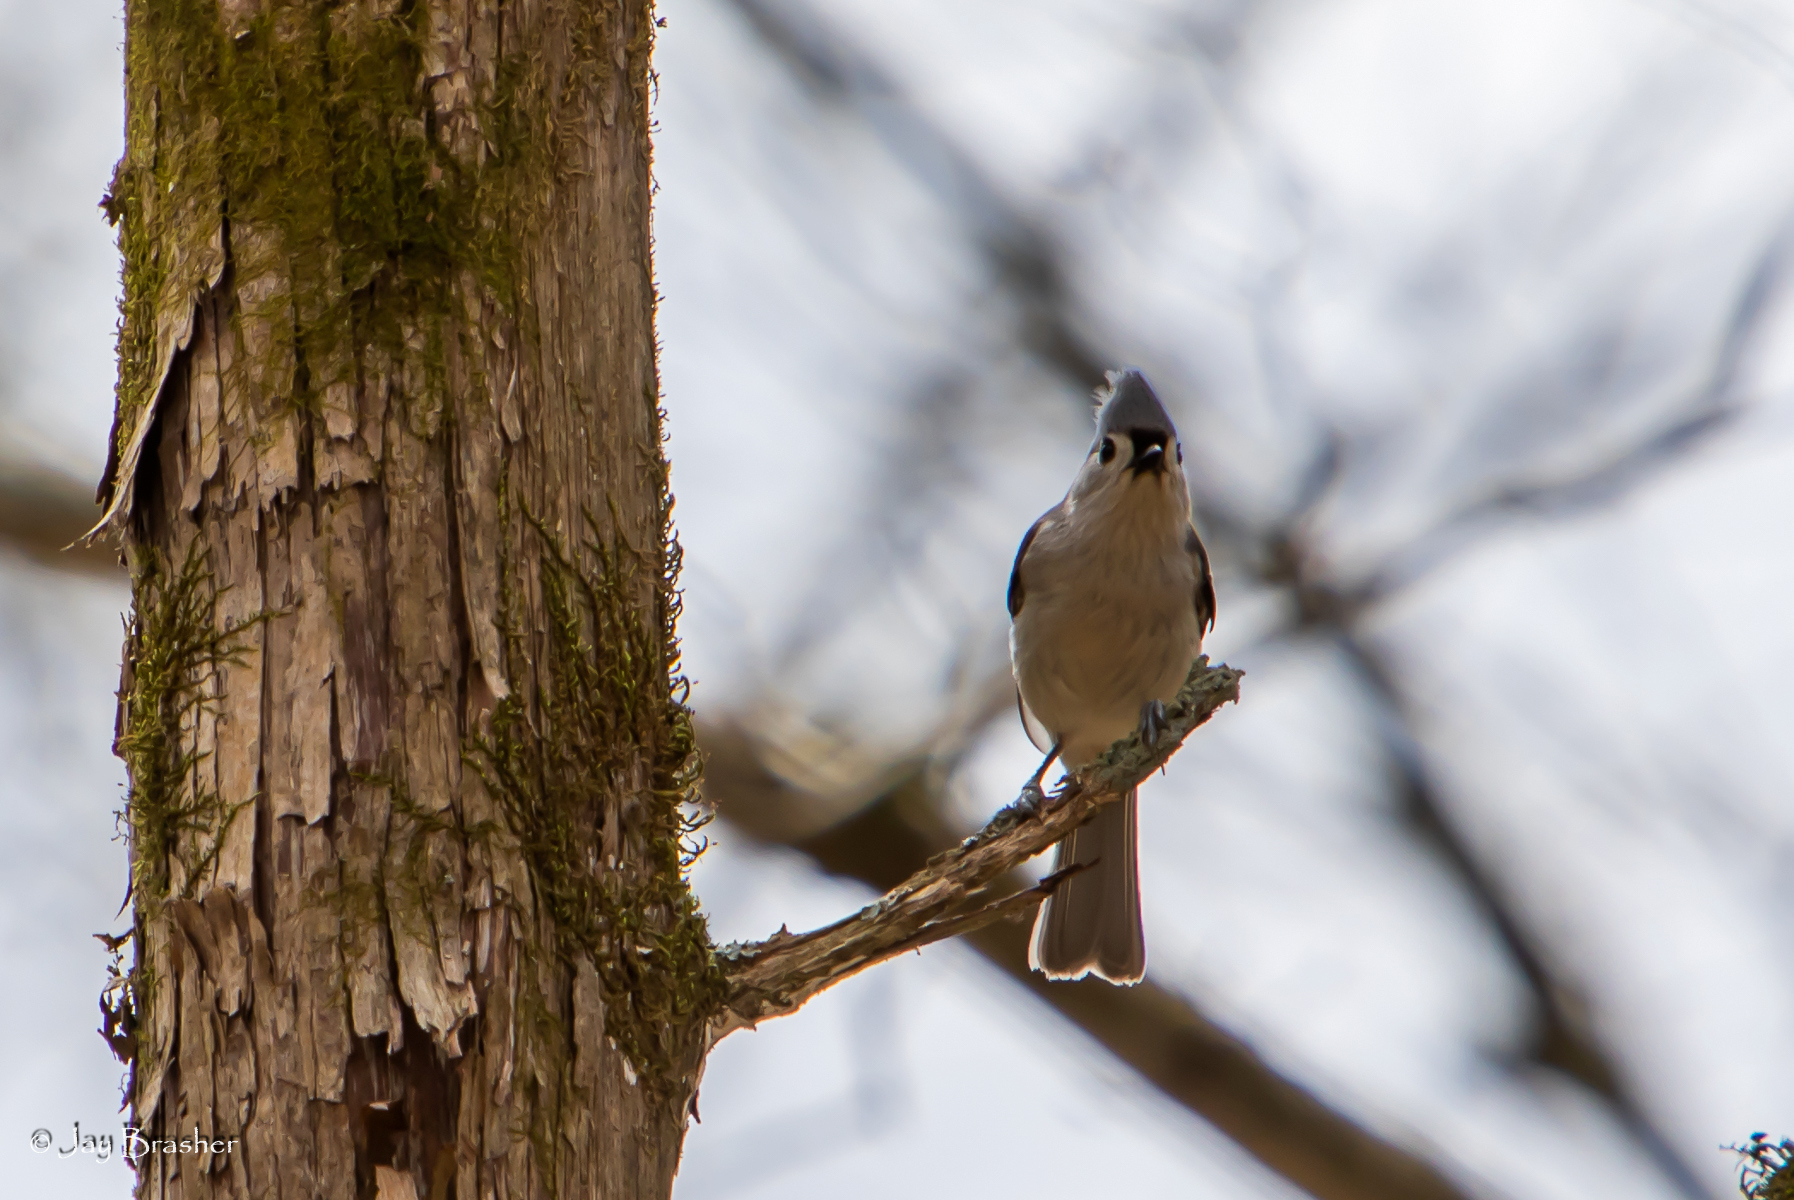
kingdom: Animalia
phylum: Chordata
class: Aves
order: Passeriformes
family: Paridae
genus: Baeolophus
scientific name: Baeolophus bicolor
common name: Tufted titmouse
